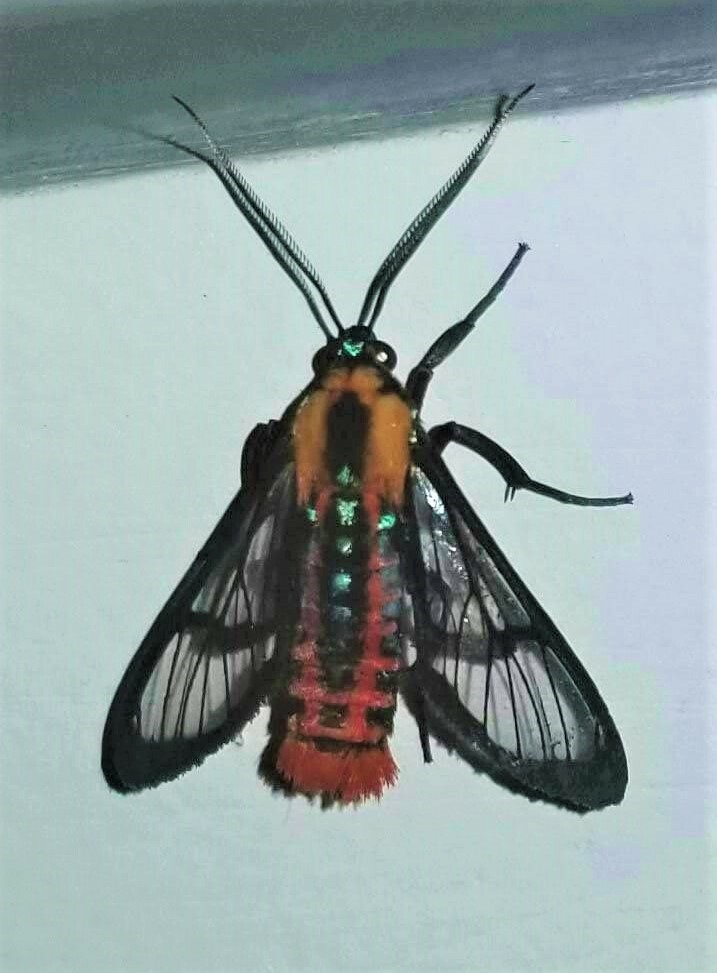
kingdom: Animalia
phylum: Arthropoda
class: Insecta
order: Lepidoptera
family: Erebidae
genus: Phoenicoprocta
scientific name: Phoenicoprocta sanguinea
